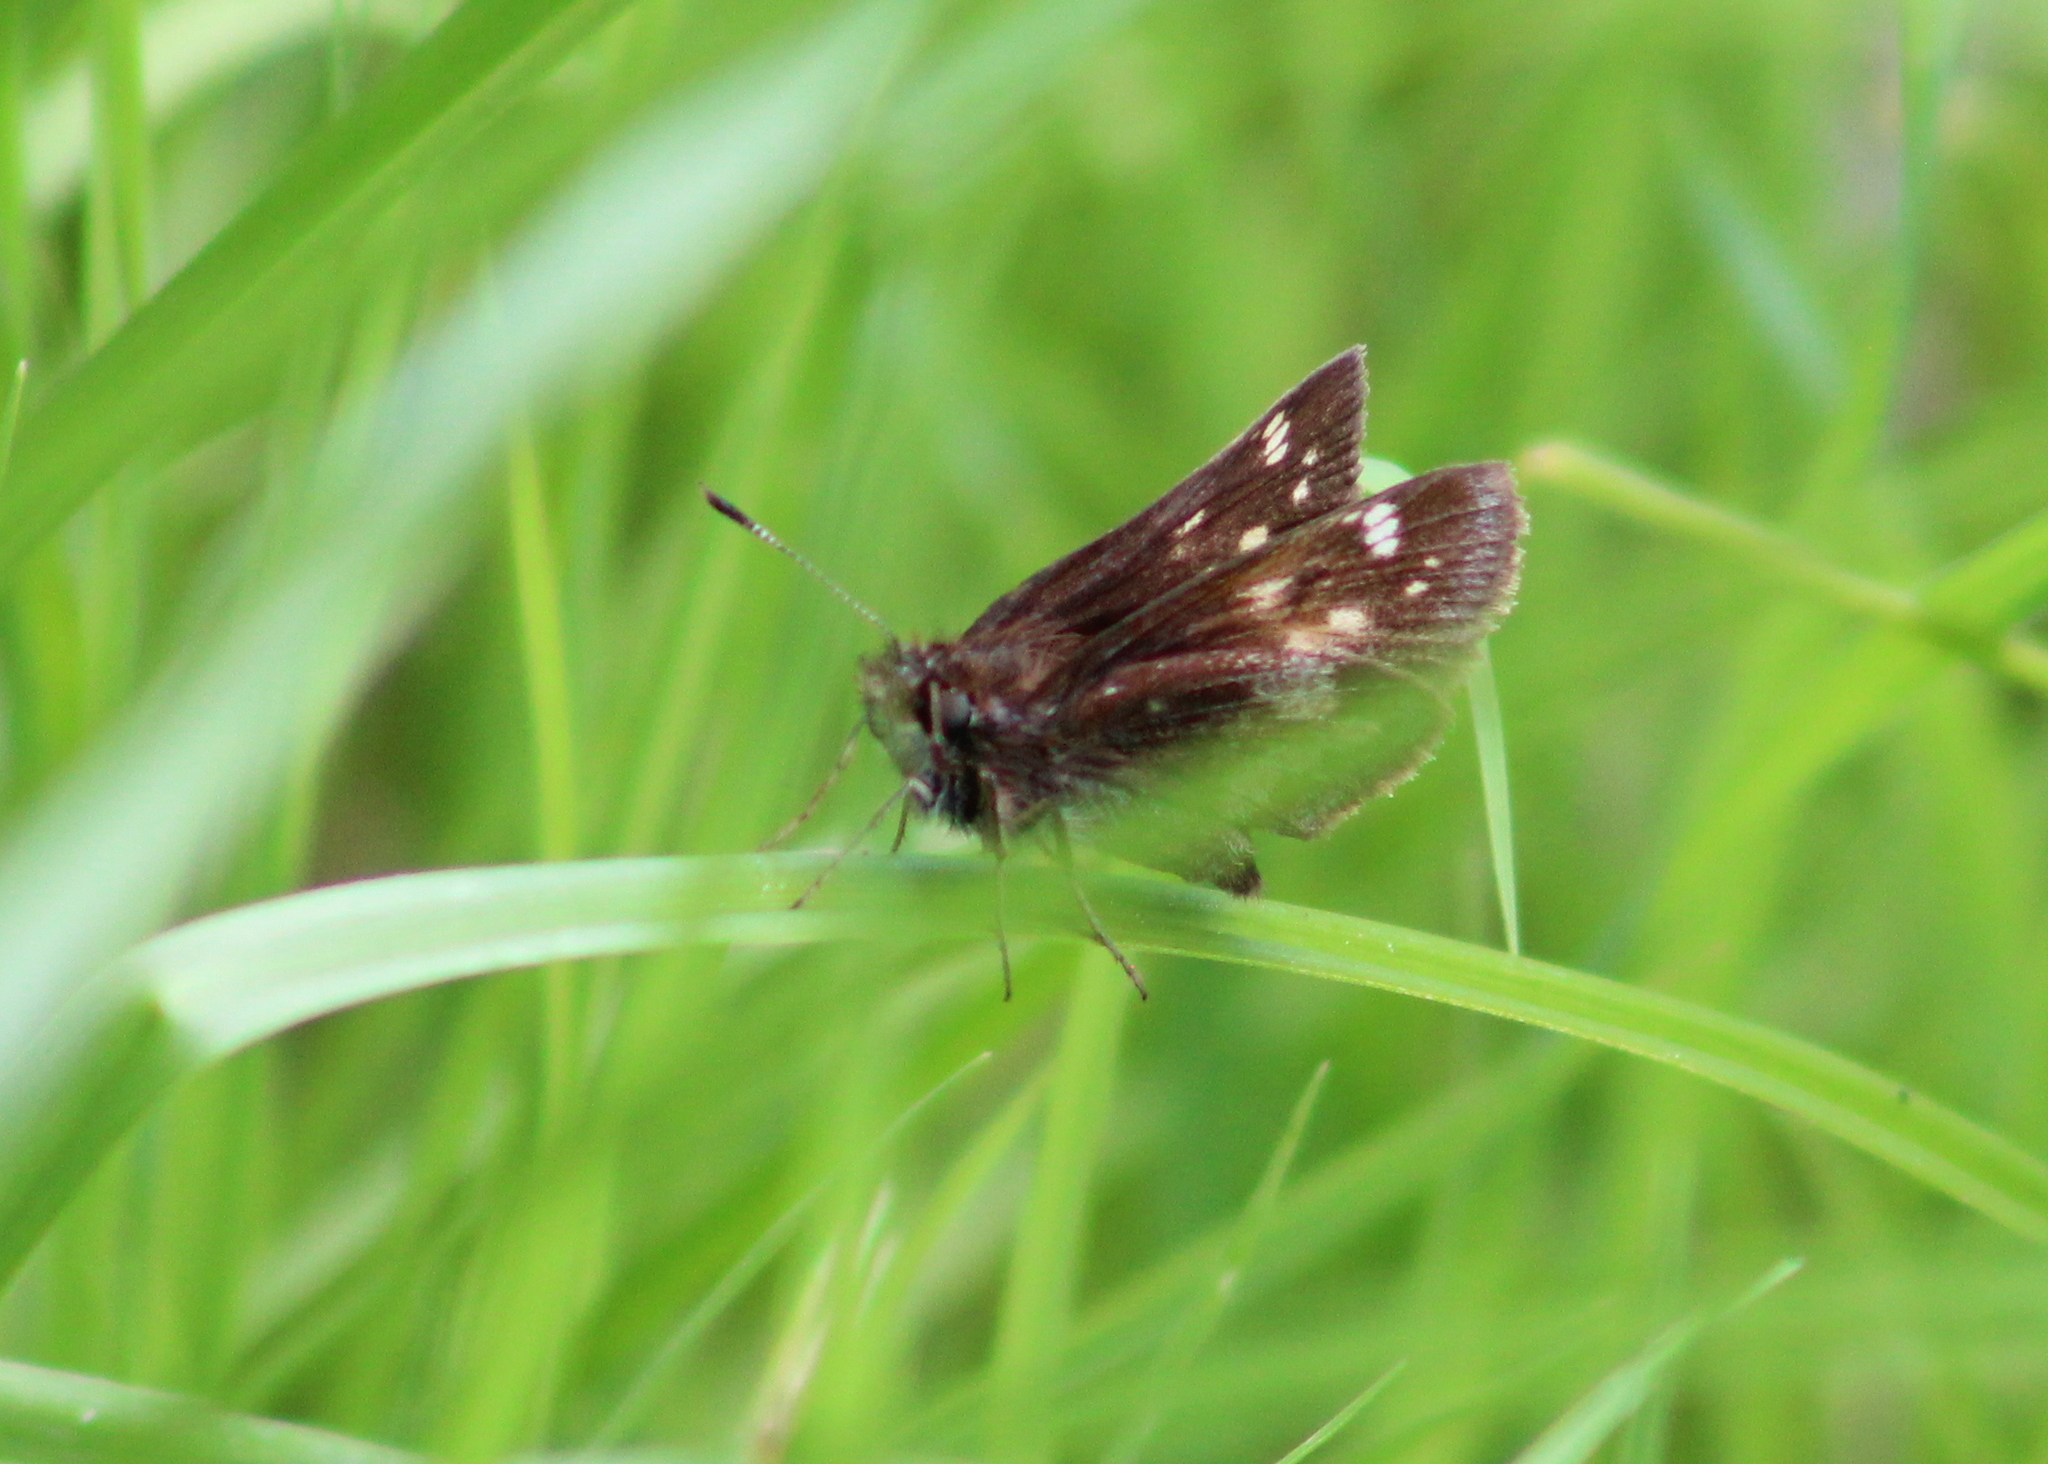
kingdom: Animalia
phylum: Arthropoda
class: Insecta
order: Lepidoptera
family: Hesperiidae
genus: Lon
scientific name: Lon hobomok
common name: Hobomok skipper
